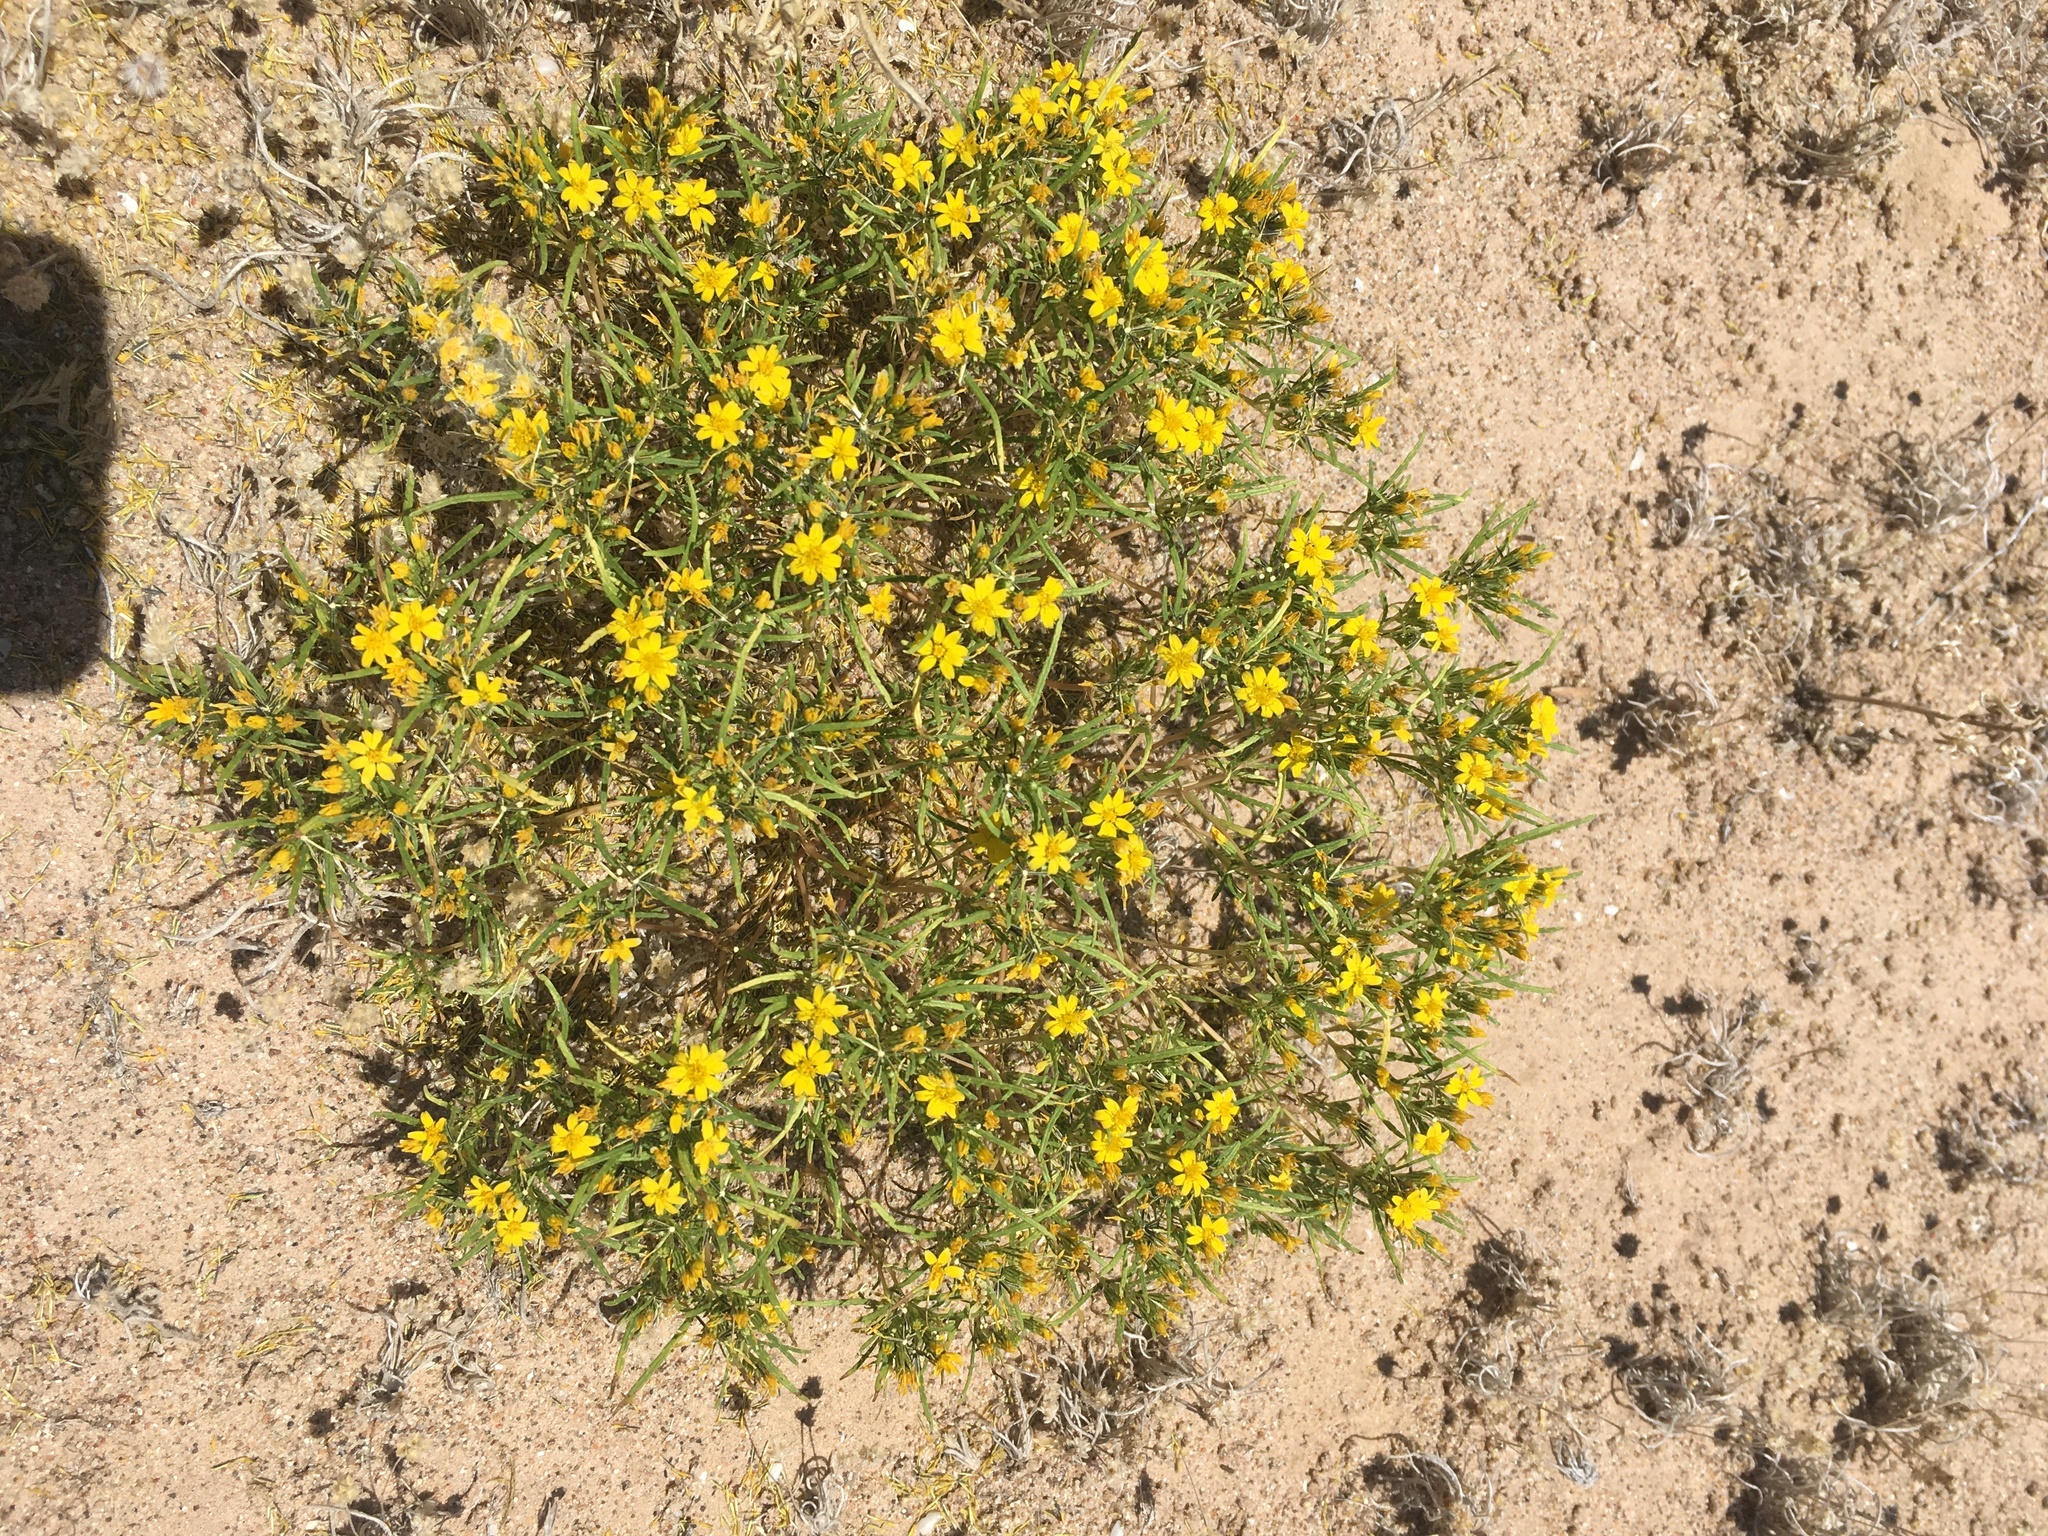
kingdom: Plantae
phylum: Tracheophyta
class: Magnoliopsida
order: Asterales
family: Asteraceae
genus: Pectis
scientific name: Pectis papposa
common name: Many-bristle chinchweed
